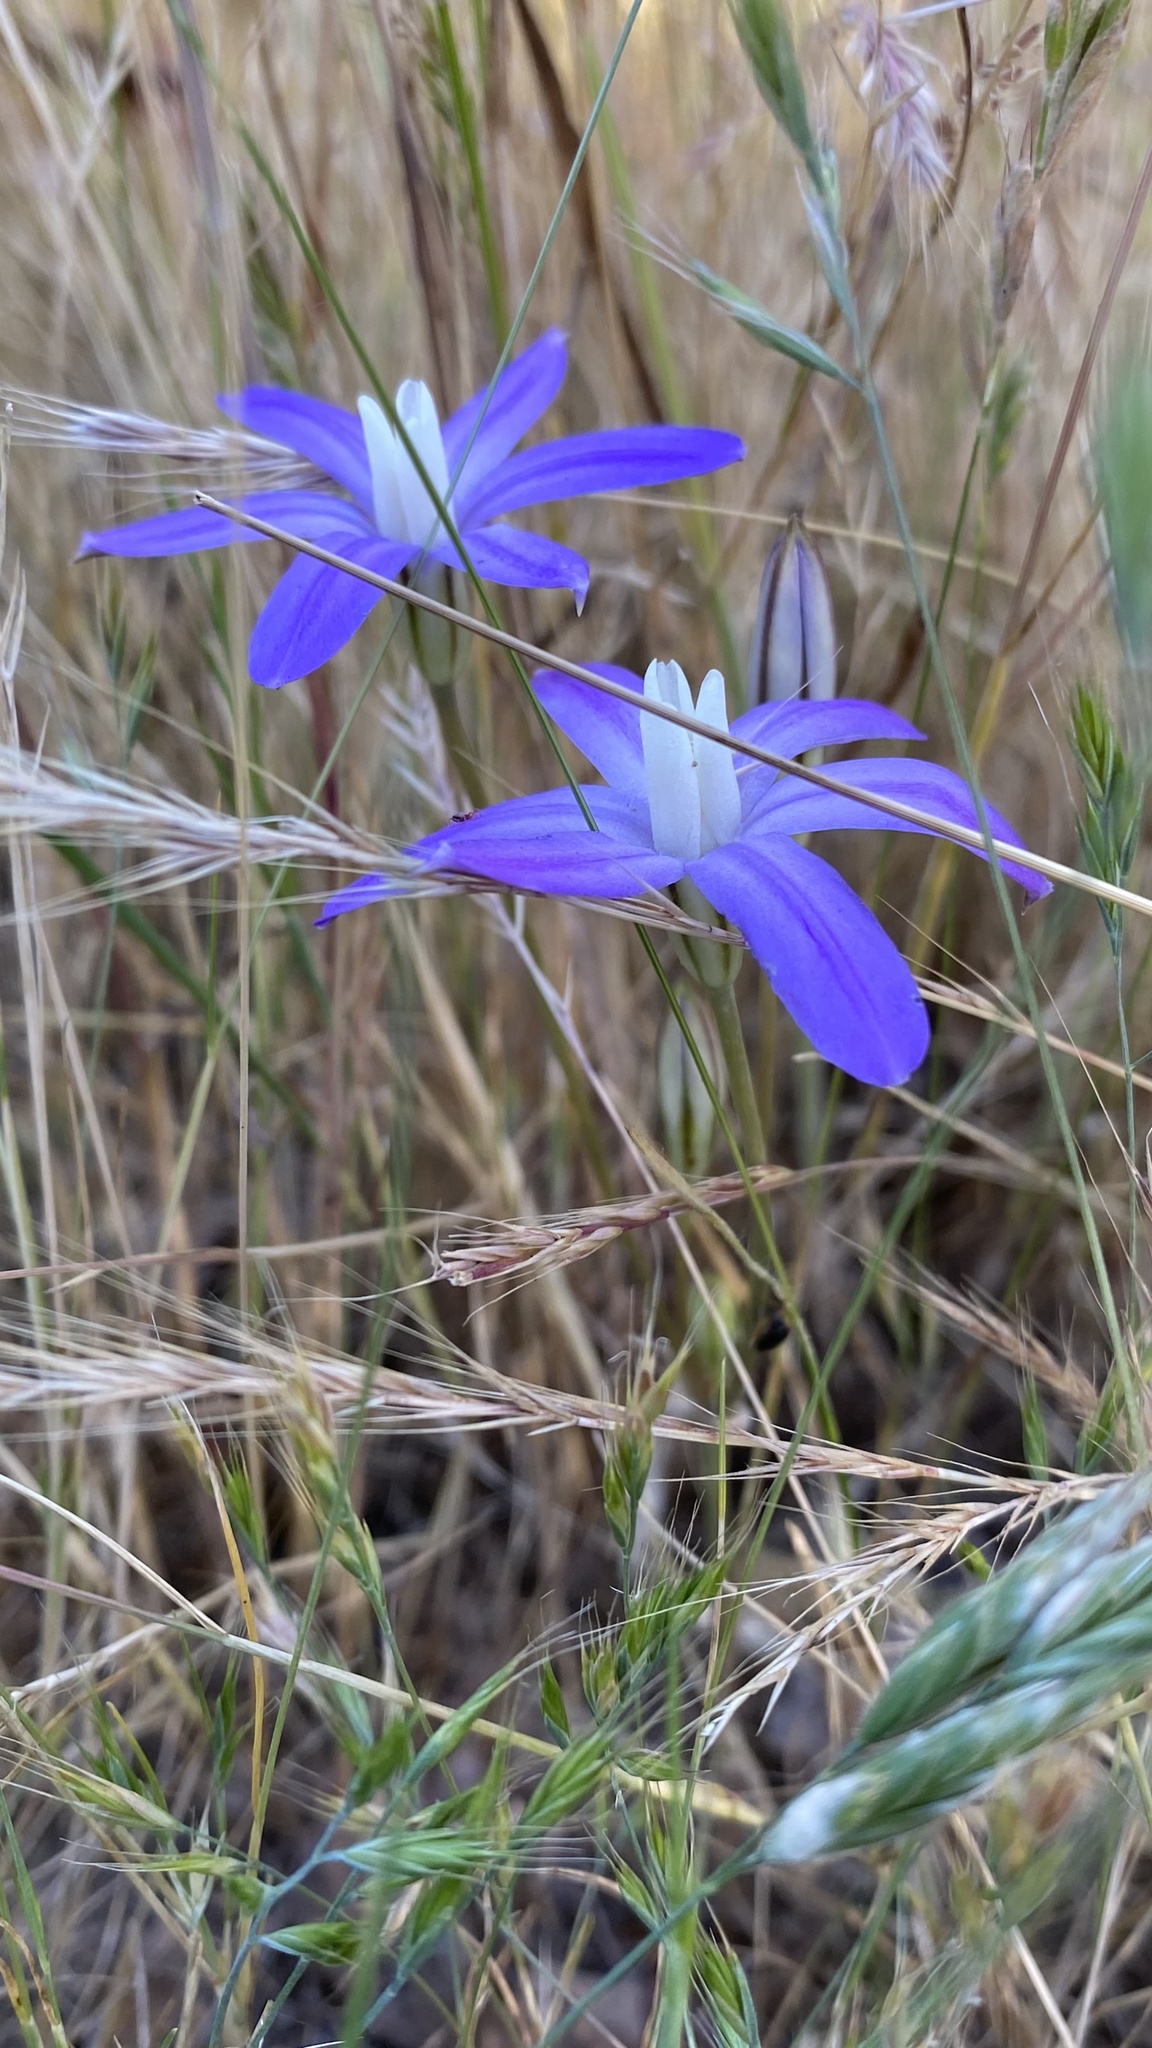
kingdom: Plantae
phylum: Tracheophyta
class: Liliopsida
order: Asparagales
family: Asparagaceae
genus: Brodiaea
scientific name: Brodiaea insignis
